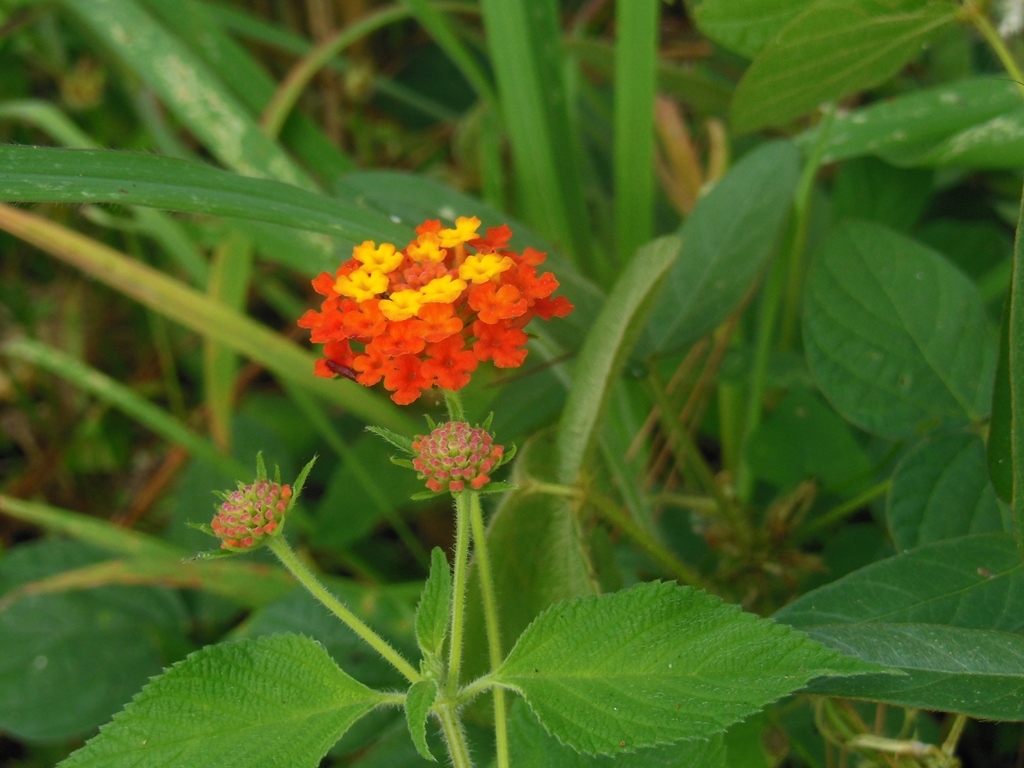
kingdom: Plantae
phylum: Tracheophyta
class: Magnoliopsida
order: Lamiales
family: Verbenaceae
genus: Lantana
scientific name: Lantana camara
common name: Lantana
